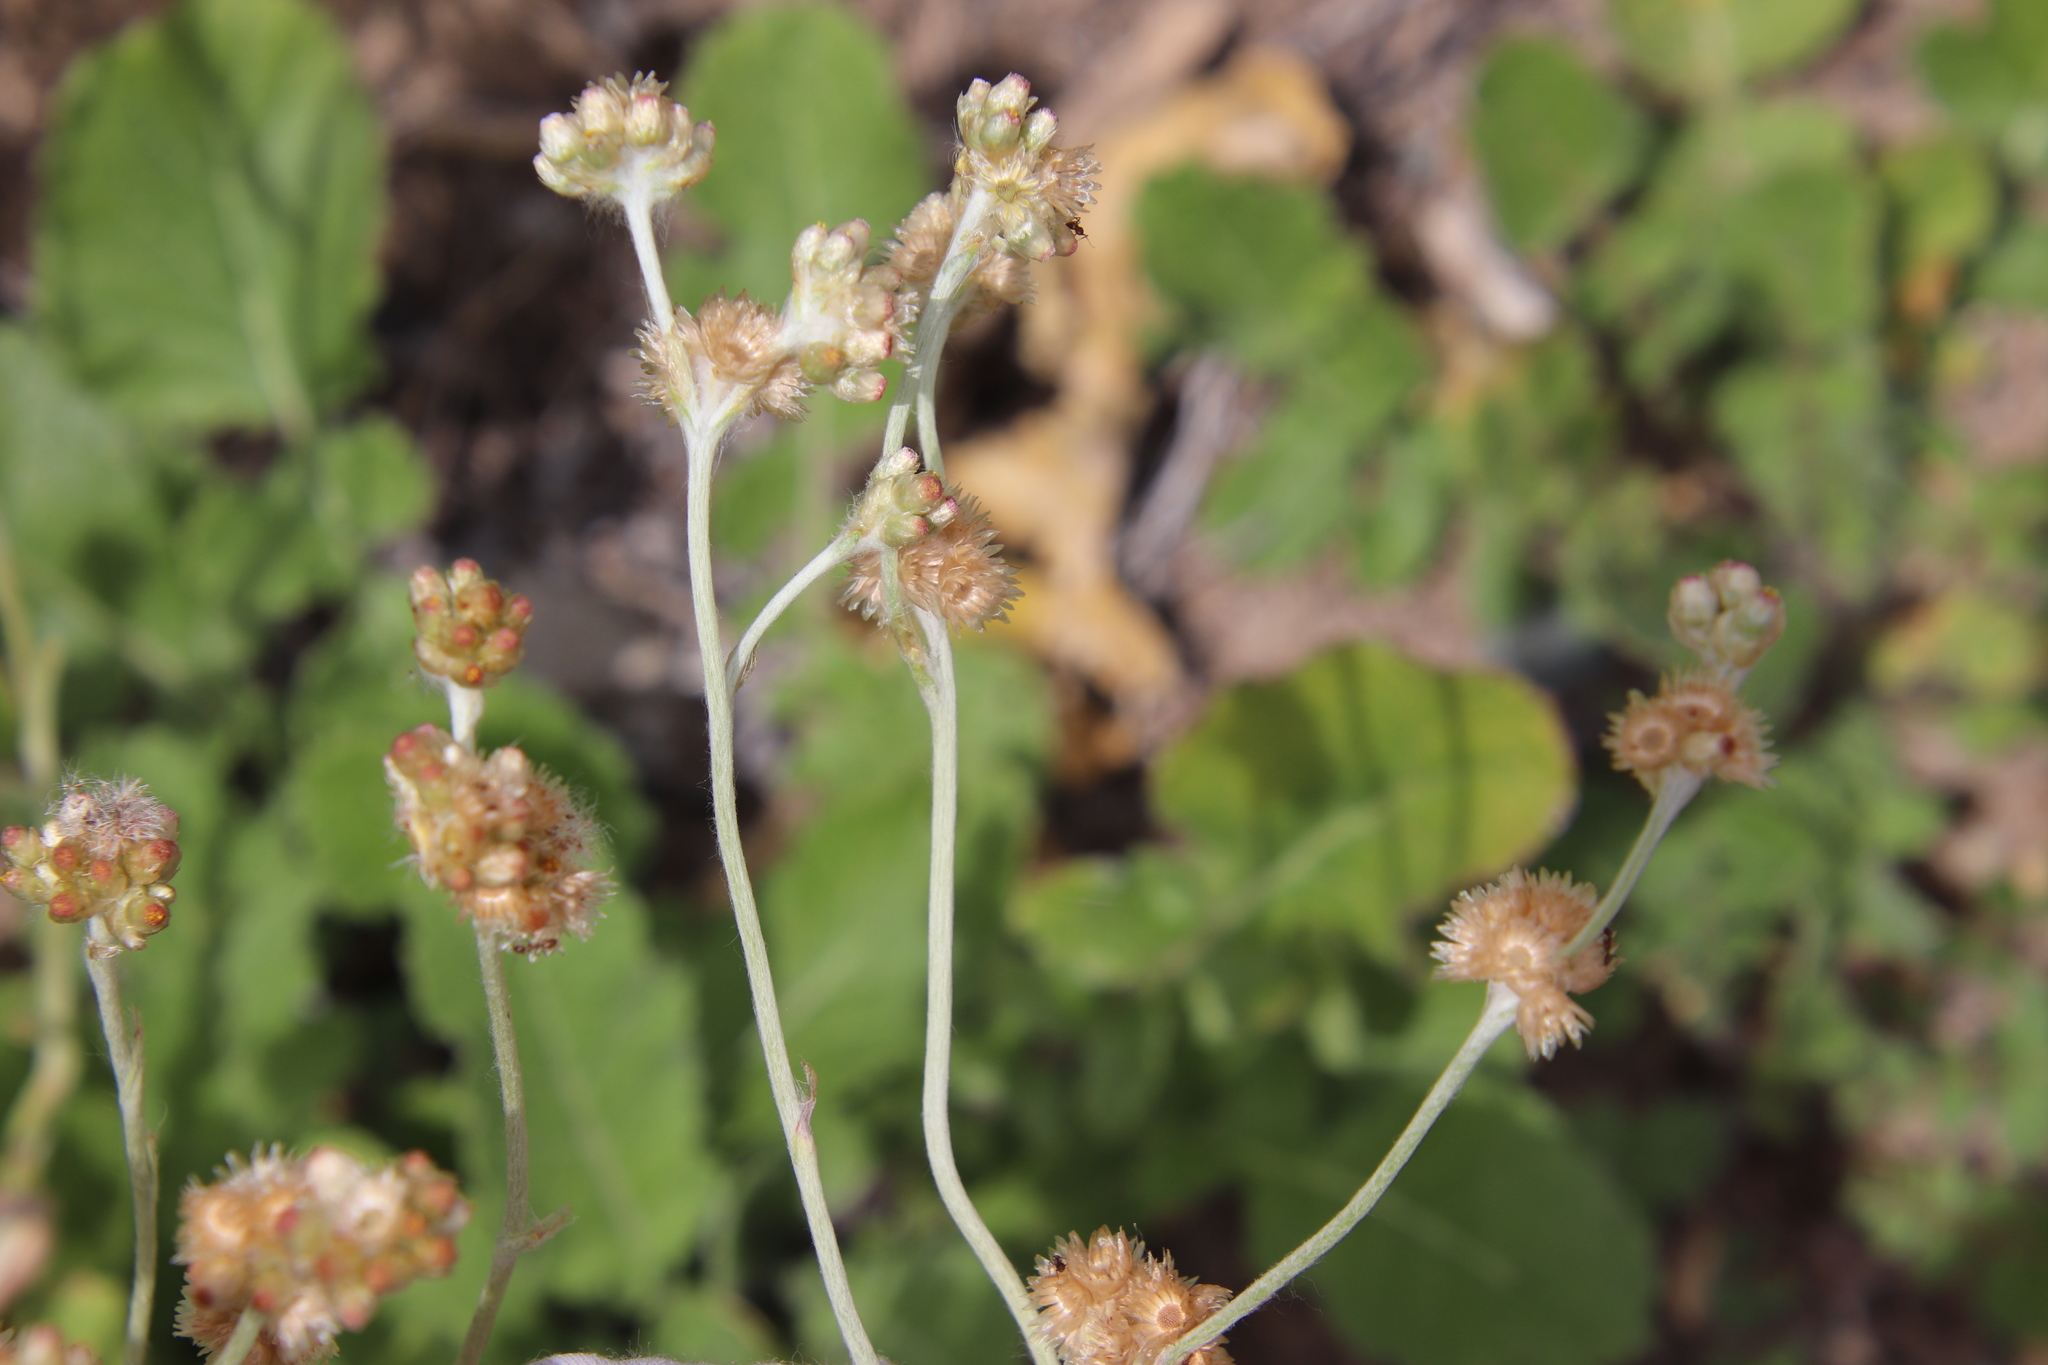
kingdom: Plantae
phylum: Tracheophyta
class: Magnoliopsida
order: Asterales
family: Asteraceae
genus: Helichrysum
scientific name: Helichrysum luteoalbum
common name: Daisy
